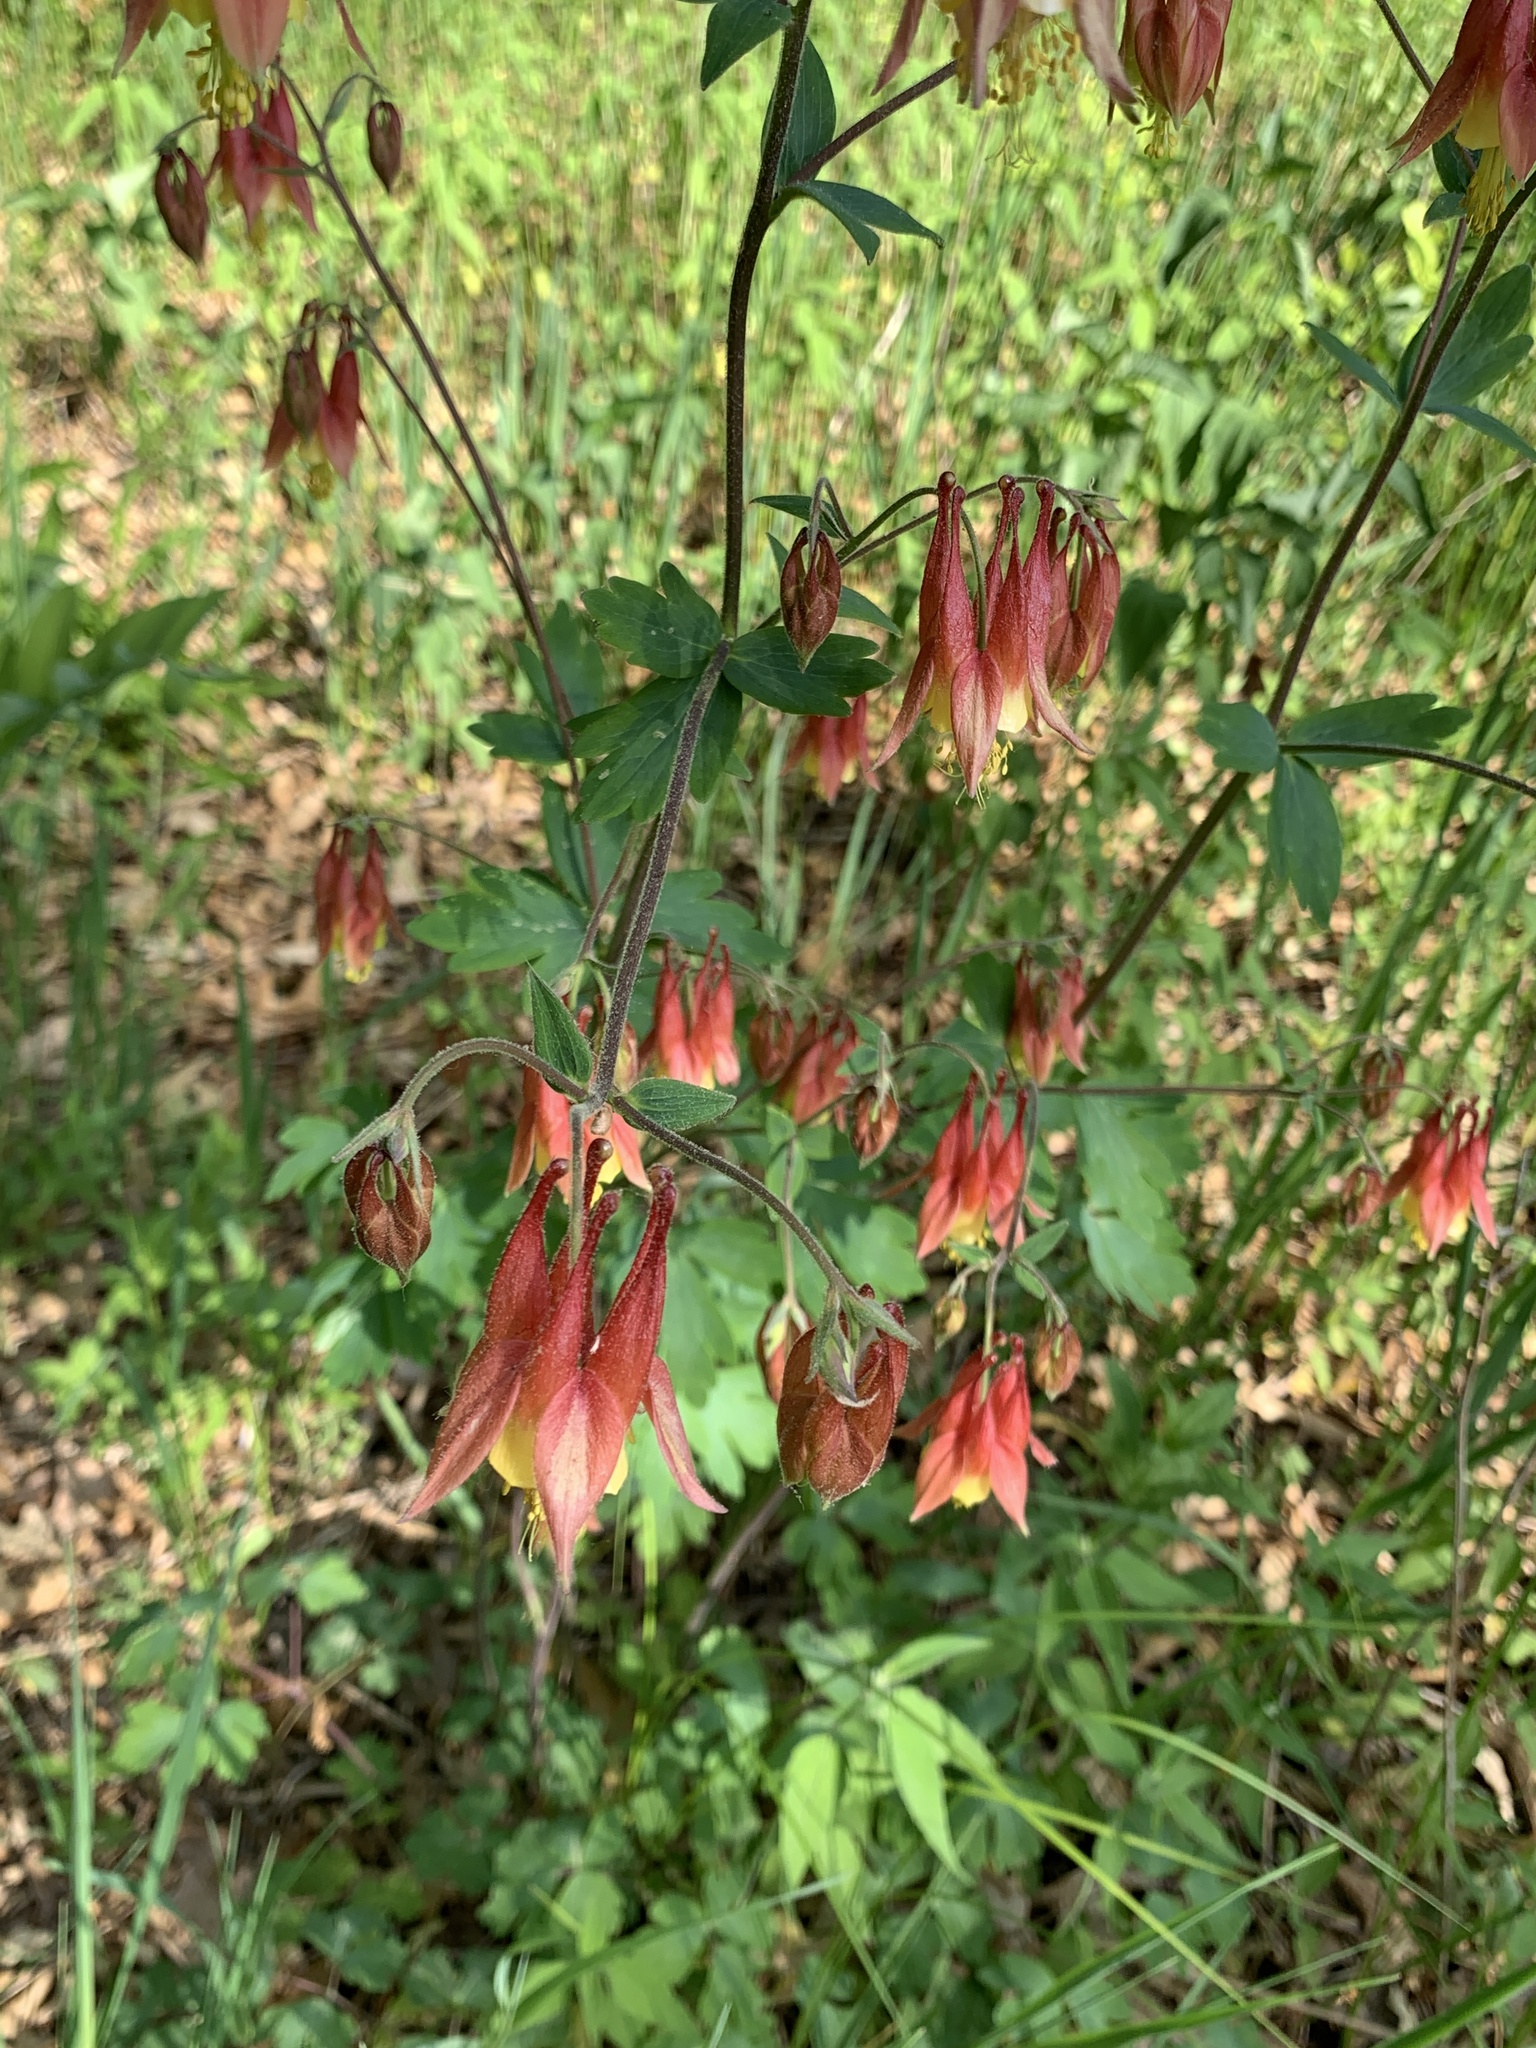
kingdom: Plantae
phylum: Tracheophyta
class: Magnoliopsida
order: Ranunculales
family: Ranunculaceae
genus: Aquilegia
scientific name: Aquilegia canadensis
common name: American columbine
